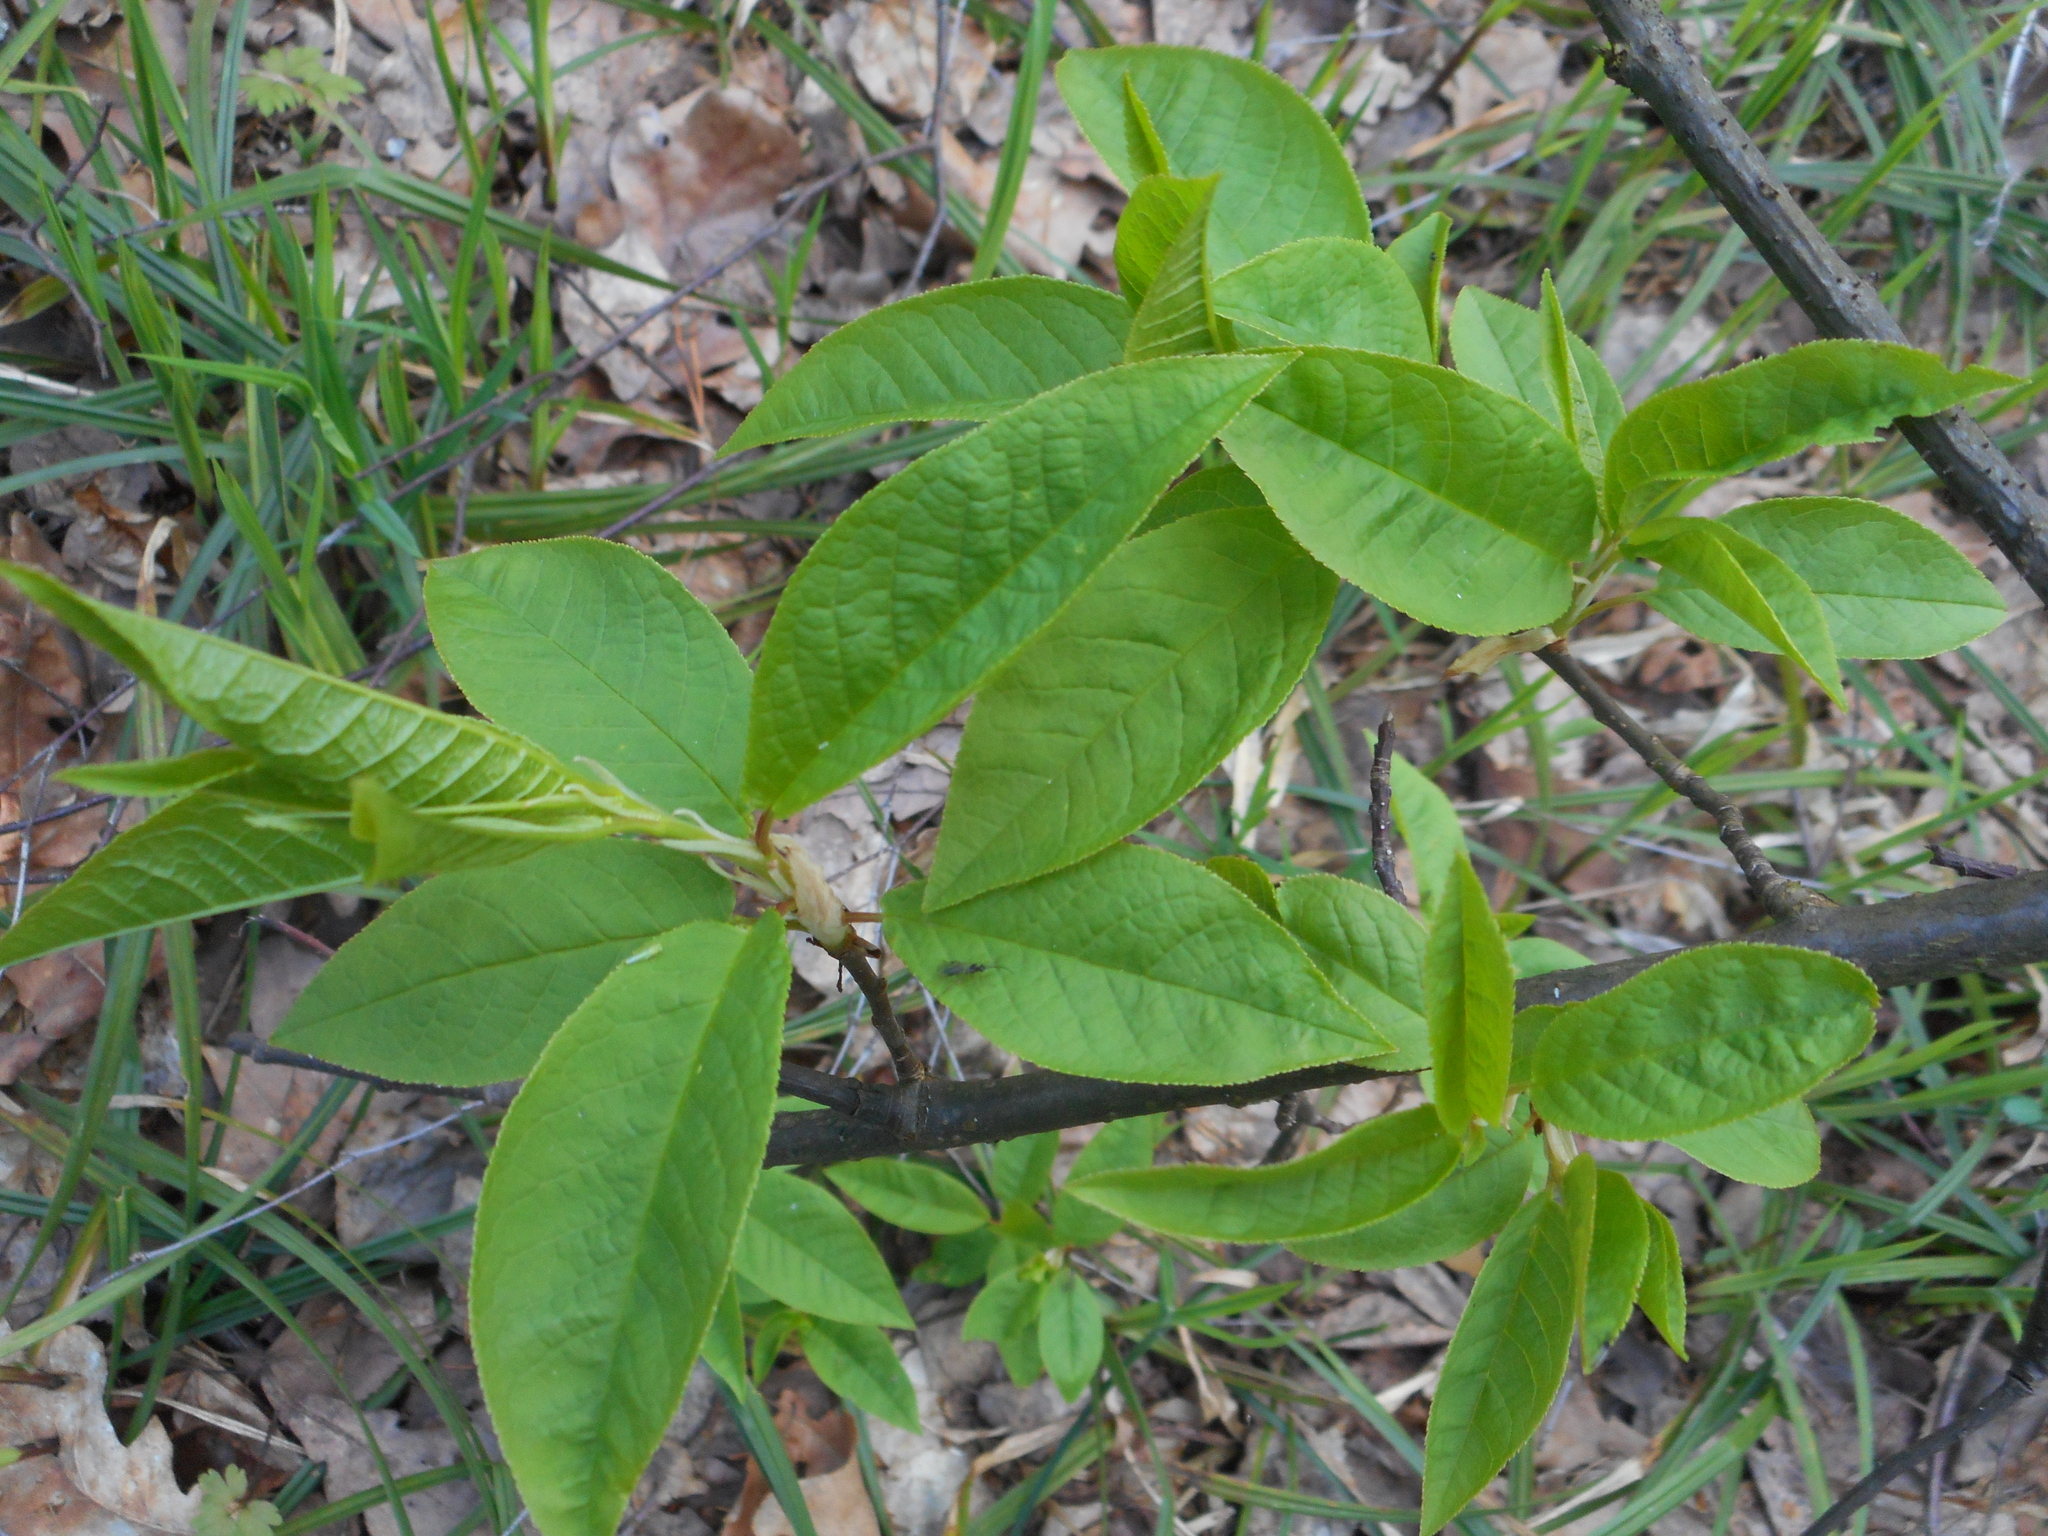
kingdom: Plantae
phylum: Tracheophyta
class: Magnoliopsida
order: Rosales
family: Rosaceae
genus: Prunus
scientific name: Prunus padus
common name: Bird cherry
